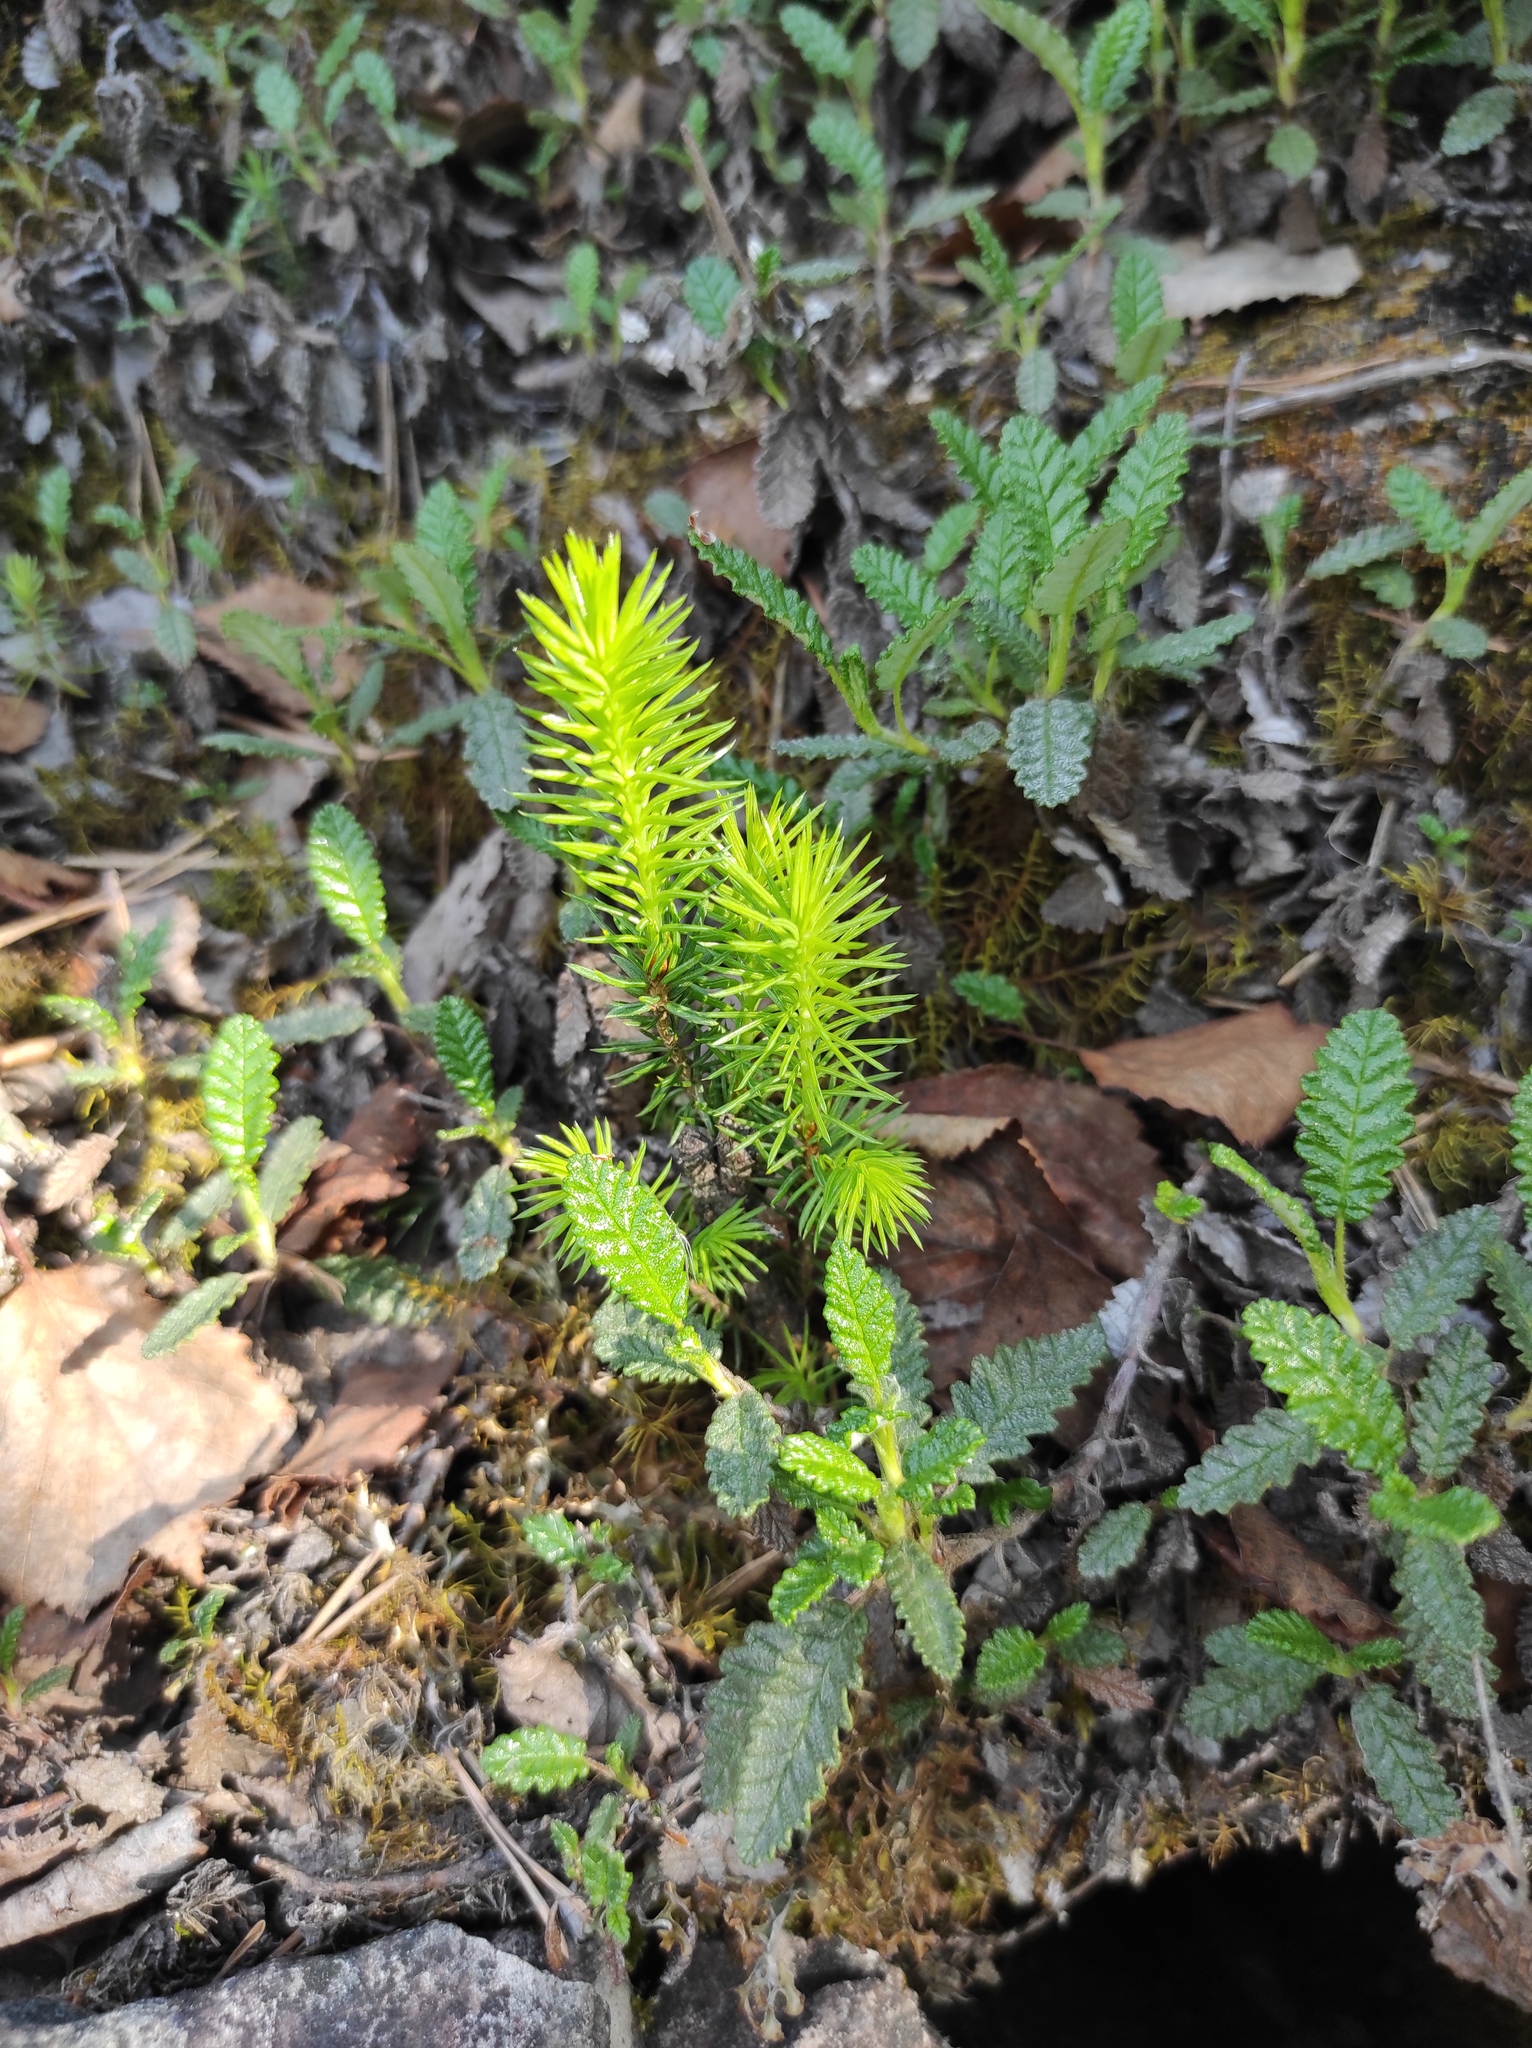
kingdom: Plantae
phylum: Tracheophyta
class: Pinopsida
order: Pinales
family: Pinaceae
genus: Picea
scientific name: Picea obovata
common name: Siberian spruce
